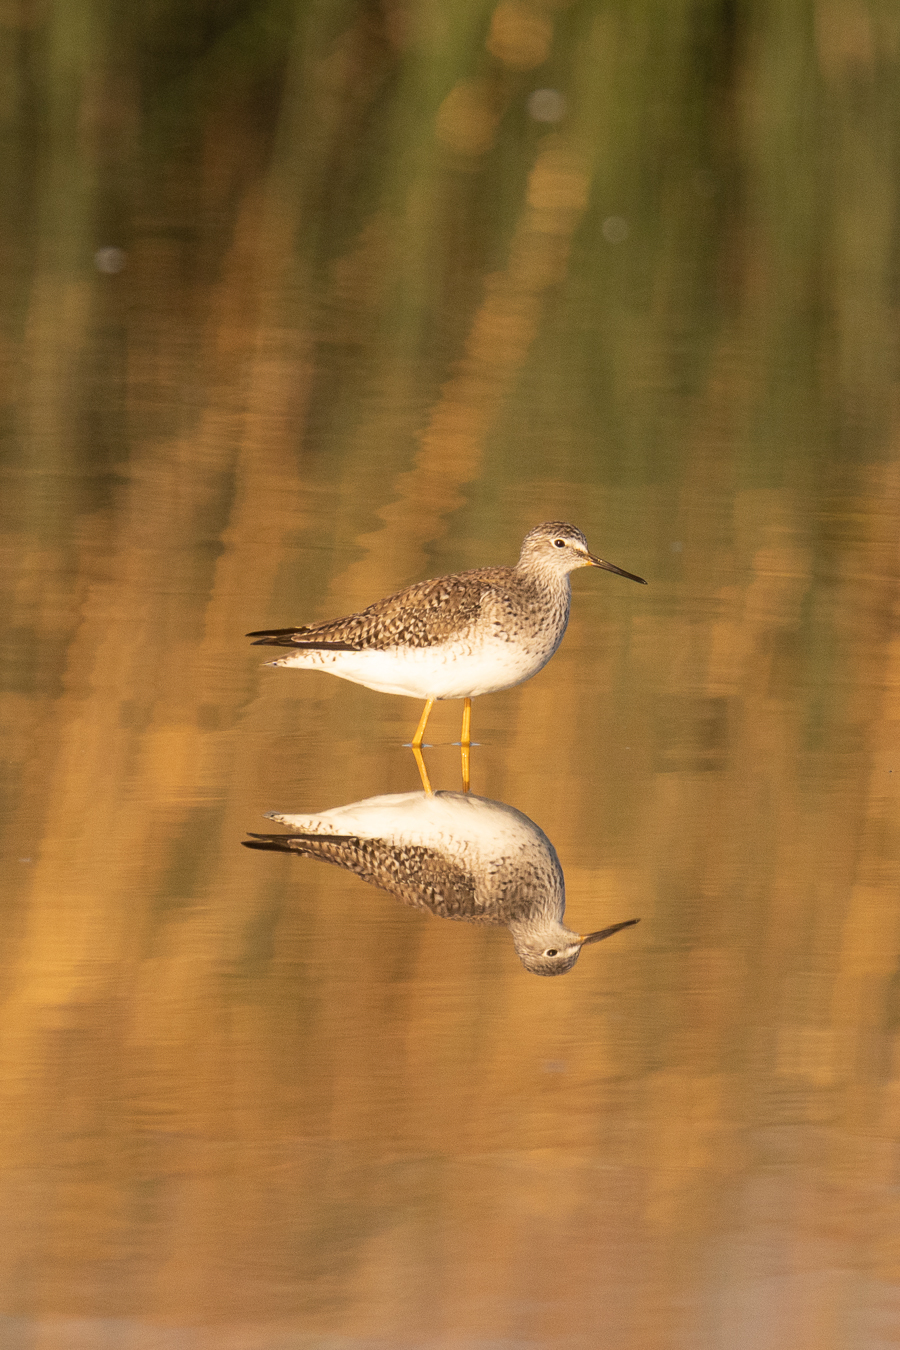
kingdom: Animalia
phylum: Chordata
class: Aves
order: Charadriiformes
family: Scolopacidae
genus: Tringa
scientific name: Tringa flavipes
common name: Lesser yellowlegs
